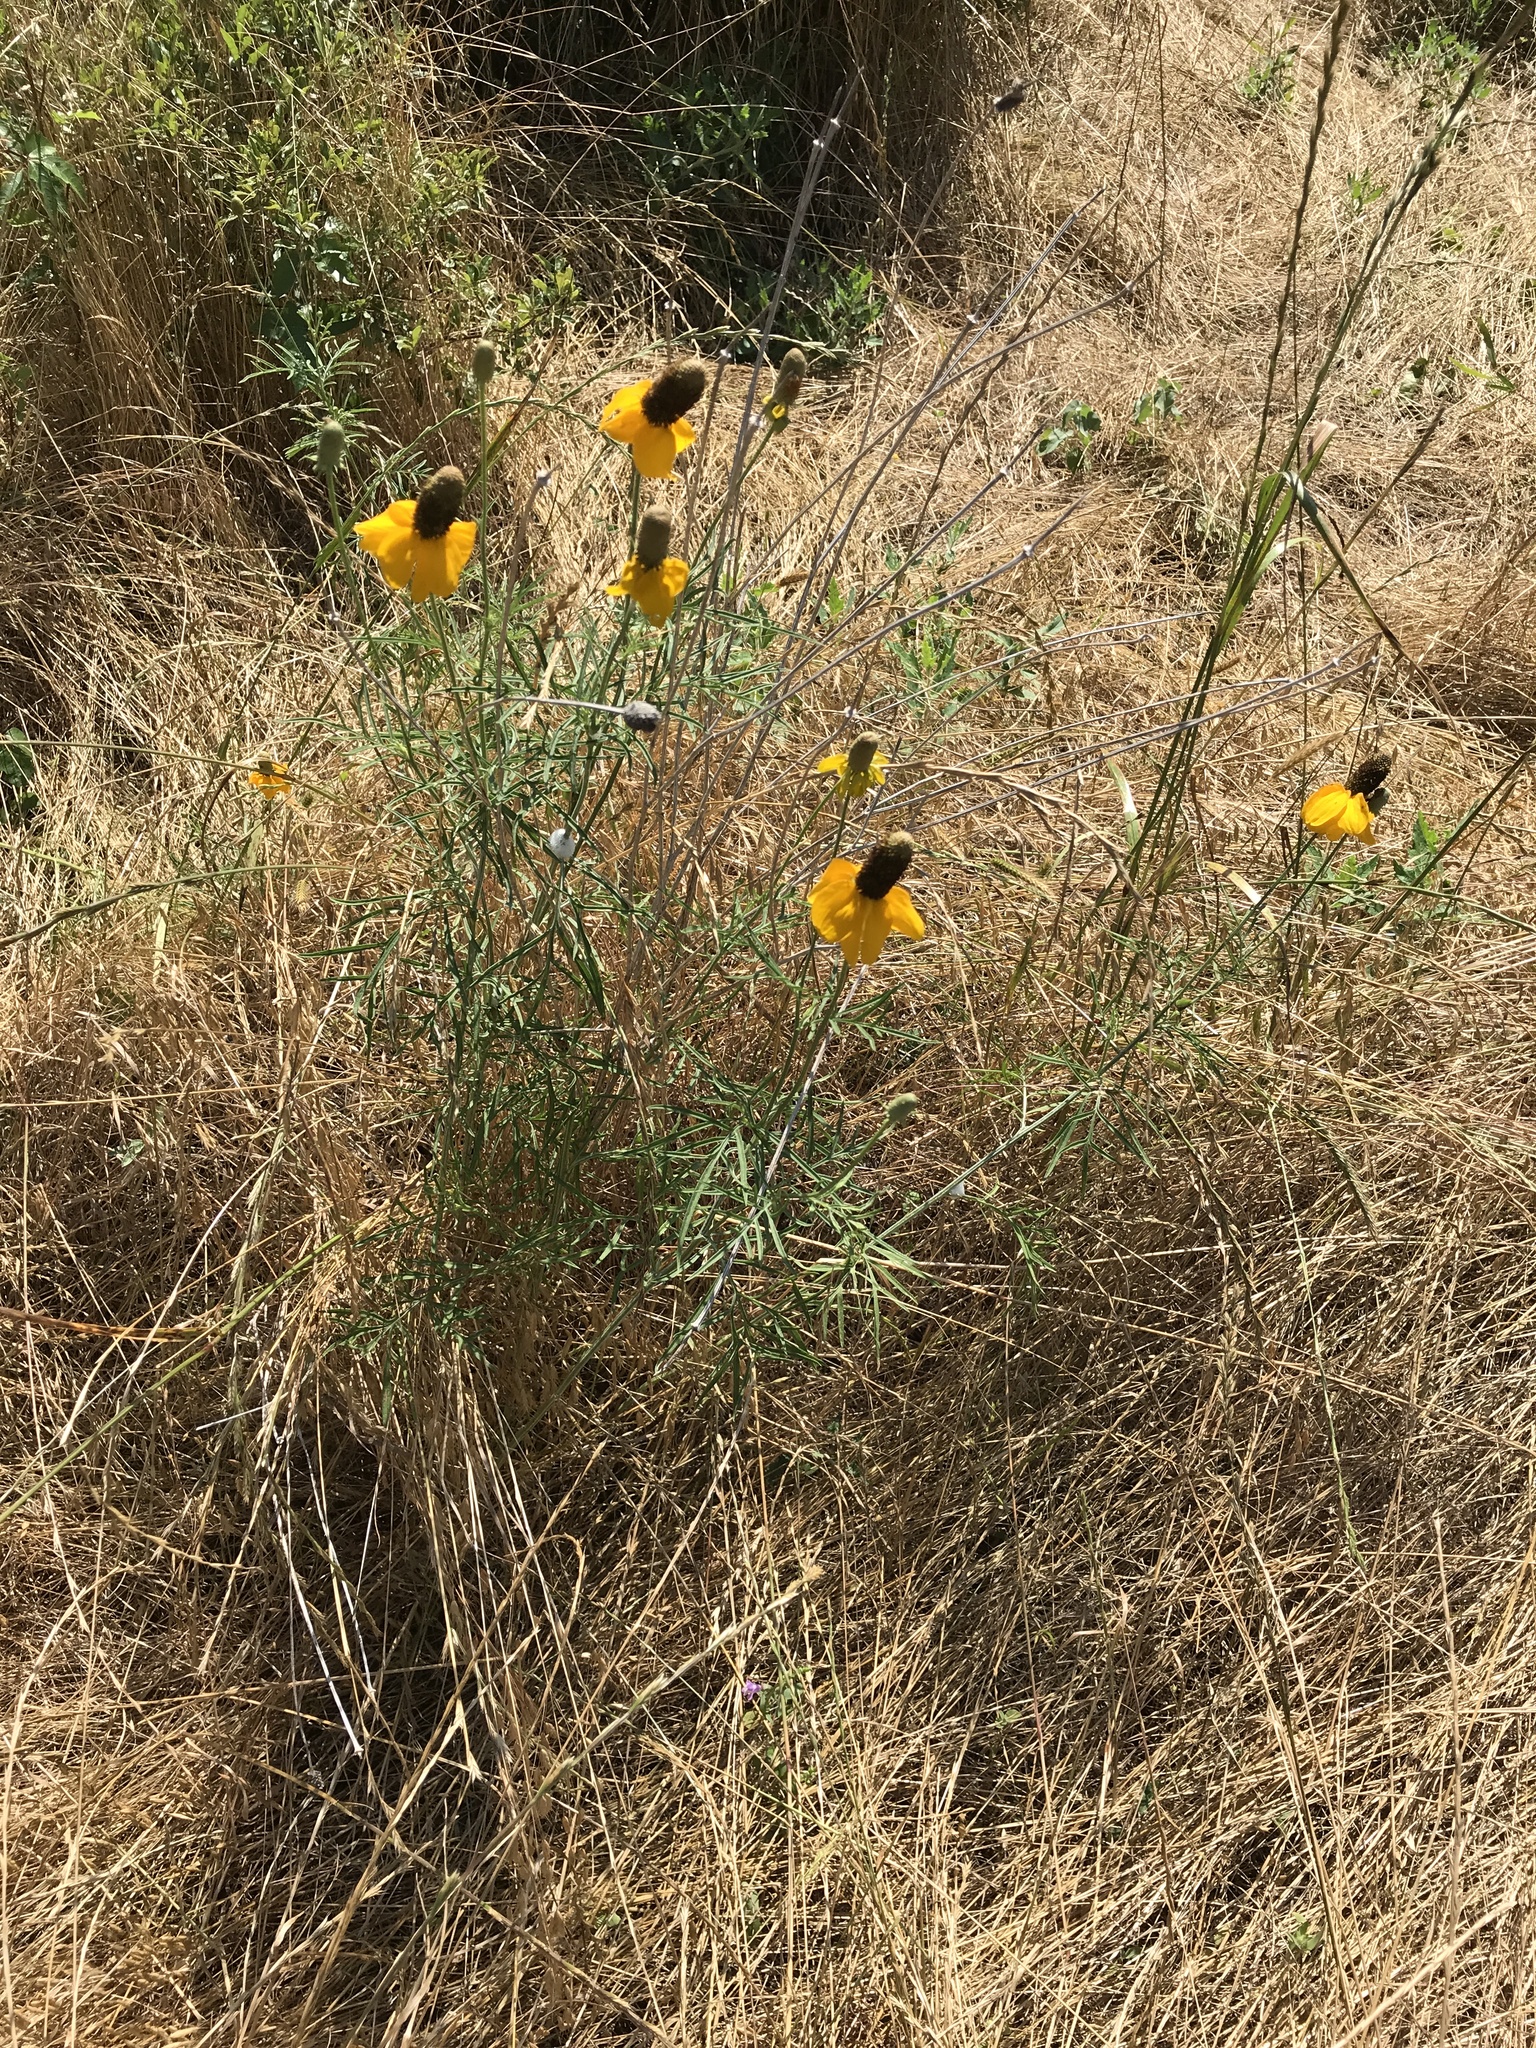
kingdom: Plantae
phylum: Tracheophyta
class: Magnoliopsida
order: Asterales
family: Asteraceae
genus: Ratibida
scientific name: Ratibida columnifera
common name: Prairie coneflower
